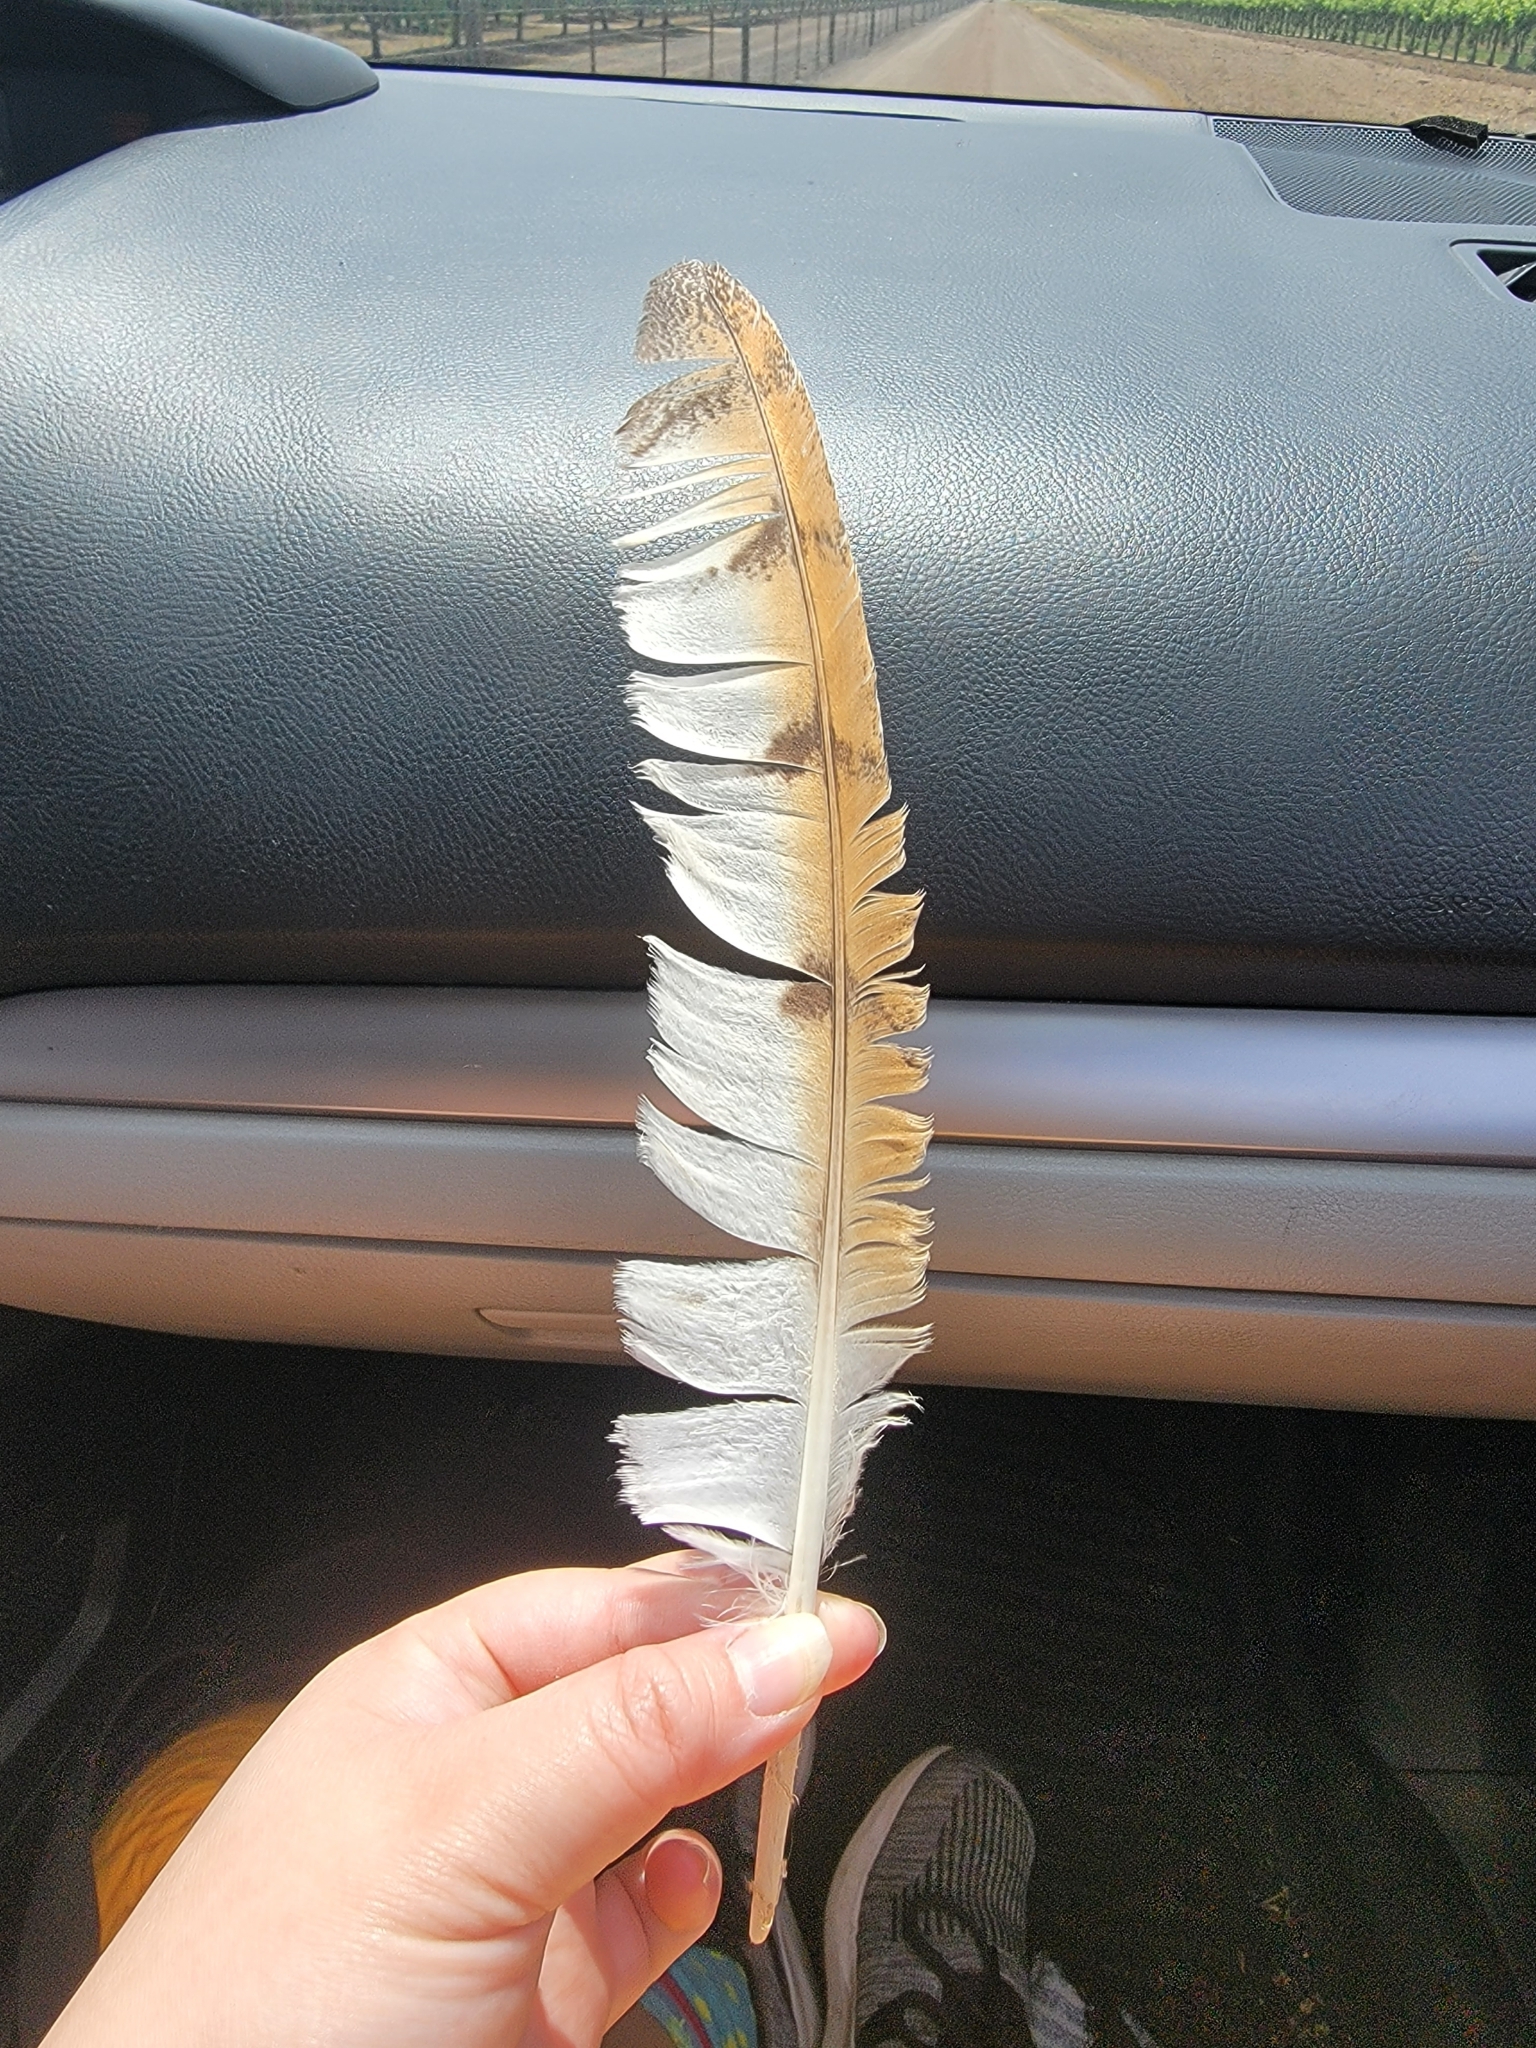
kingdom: Animalia
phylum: Chordata
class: Aves
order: Strigiformes
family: Tytonidae
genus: Tyto
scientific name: Tyto alba
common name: Barn owl
